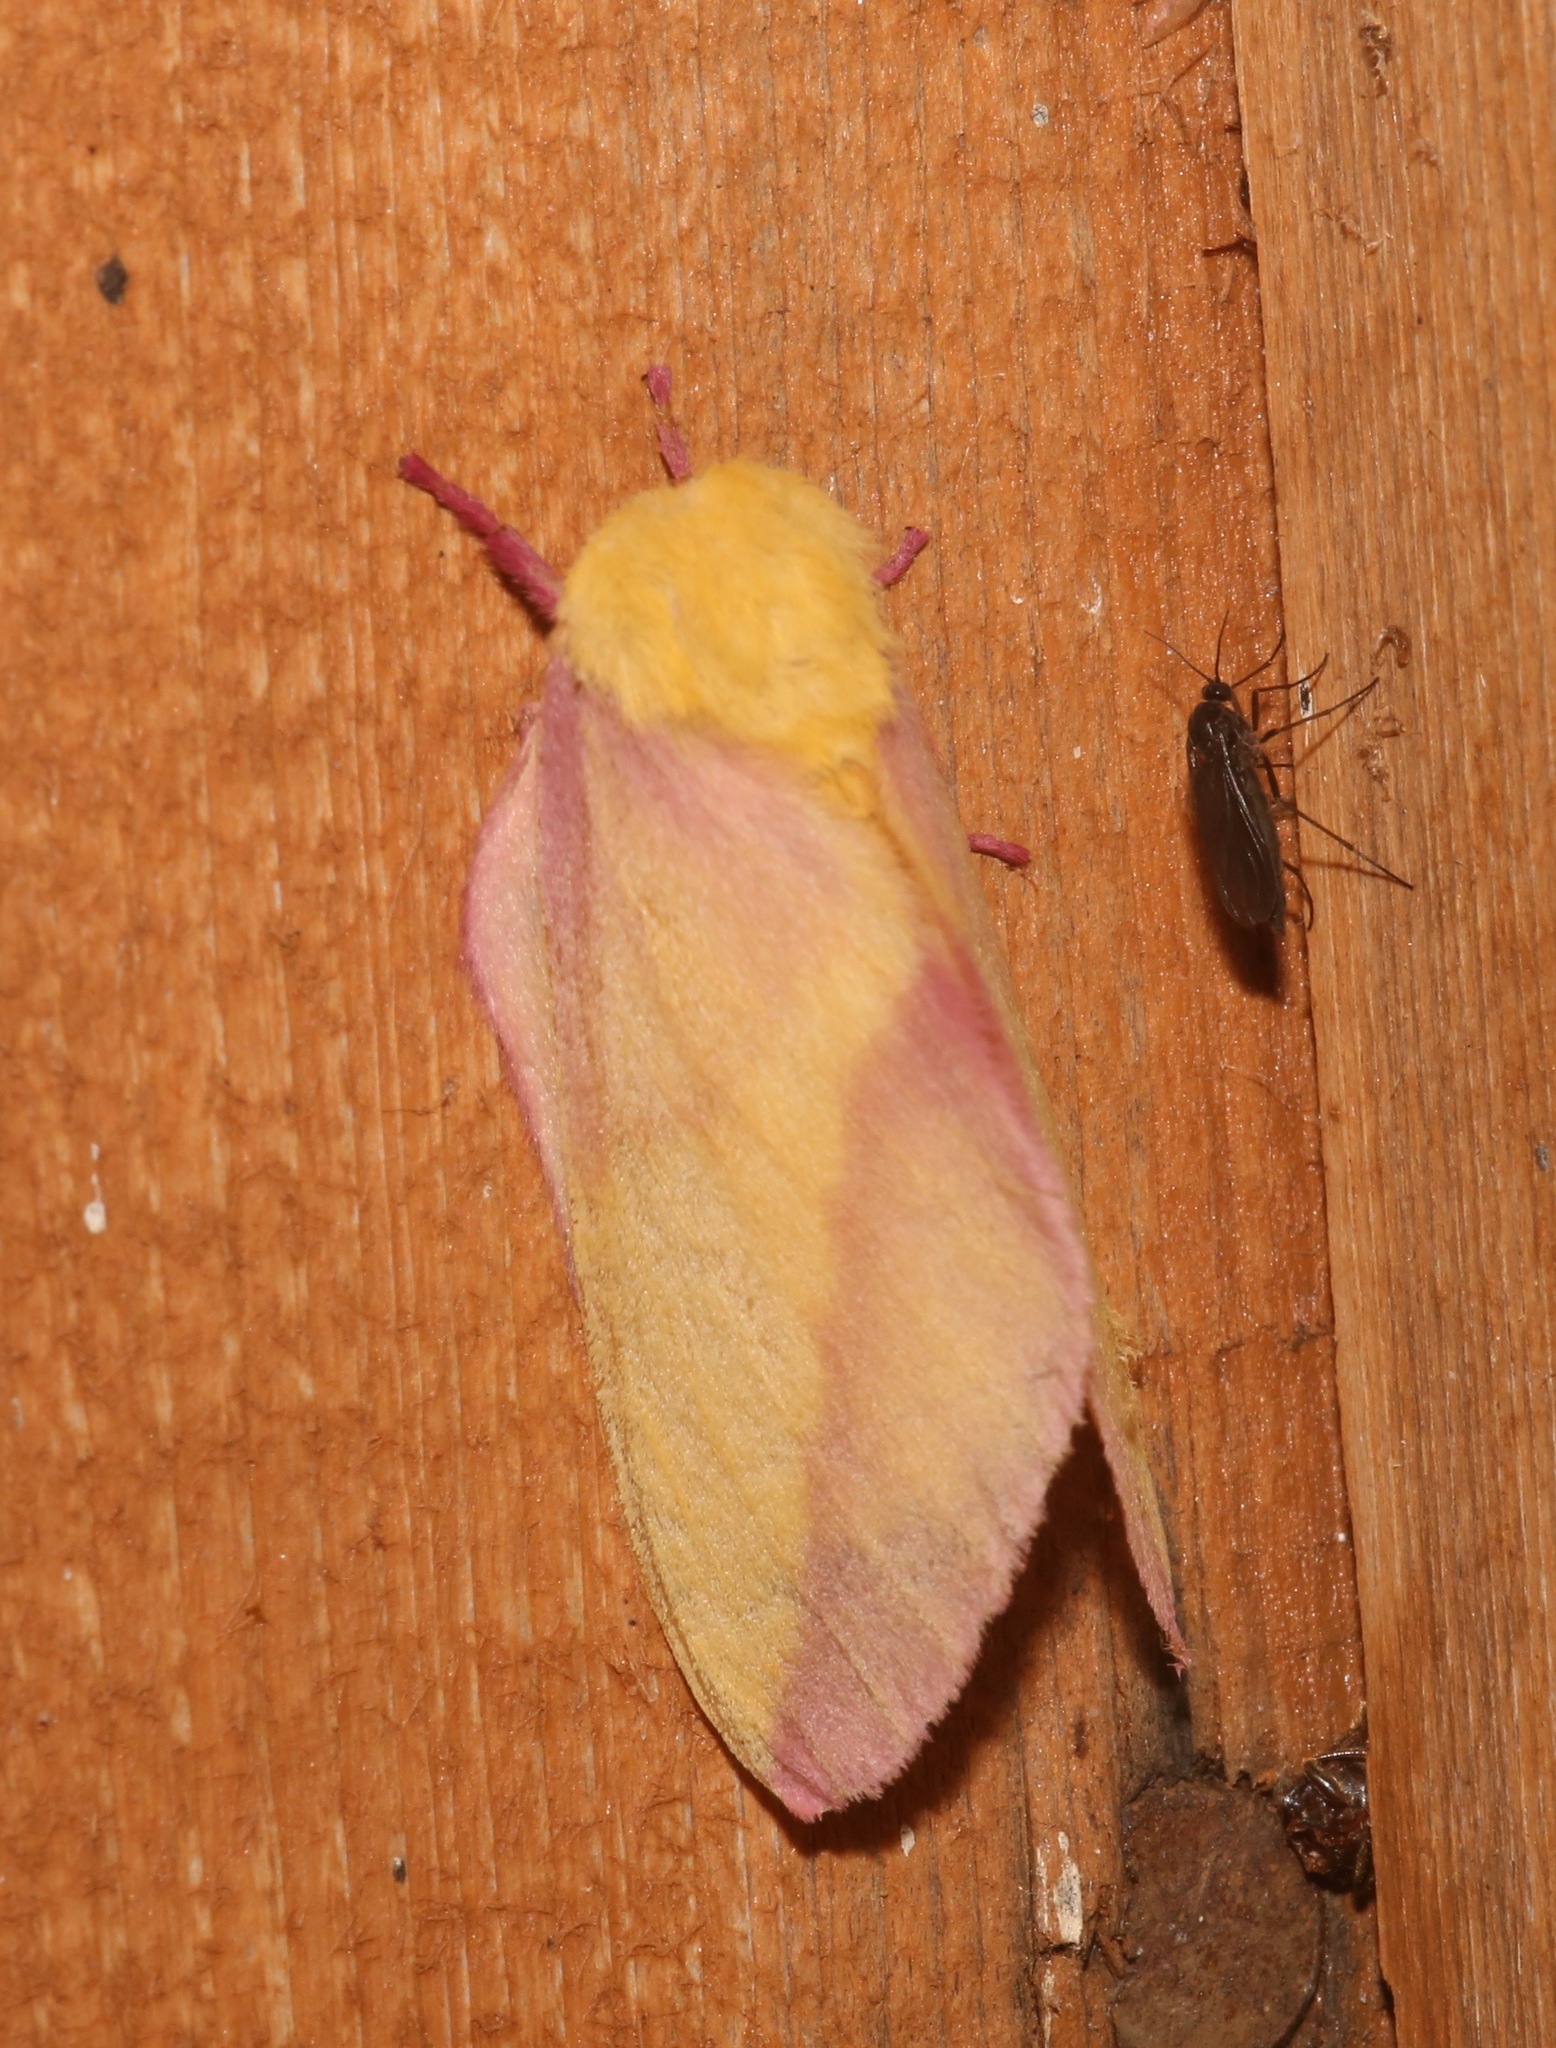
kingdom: Animalia
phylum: Arthropoda
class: Insecta
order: Lepidoptera
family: Saturniidae
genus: Dryocampa
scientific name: Dryocampa rubicunda
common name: Rosy maple moth
